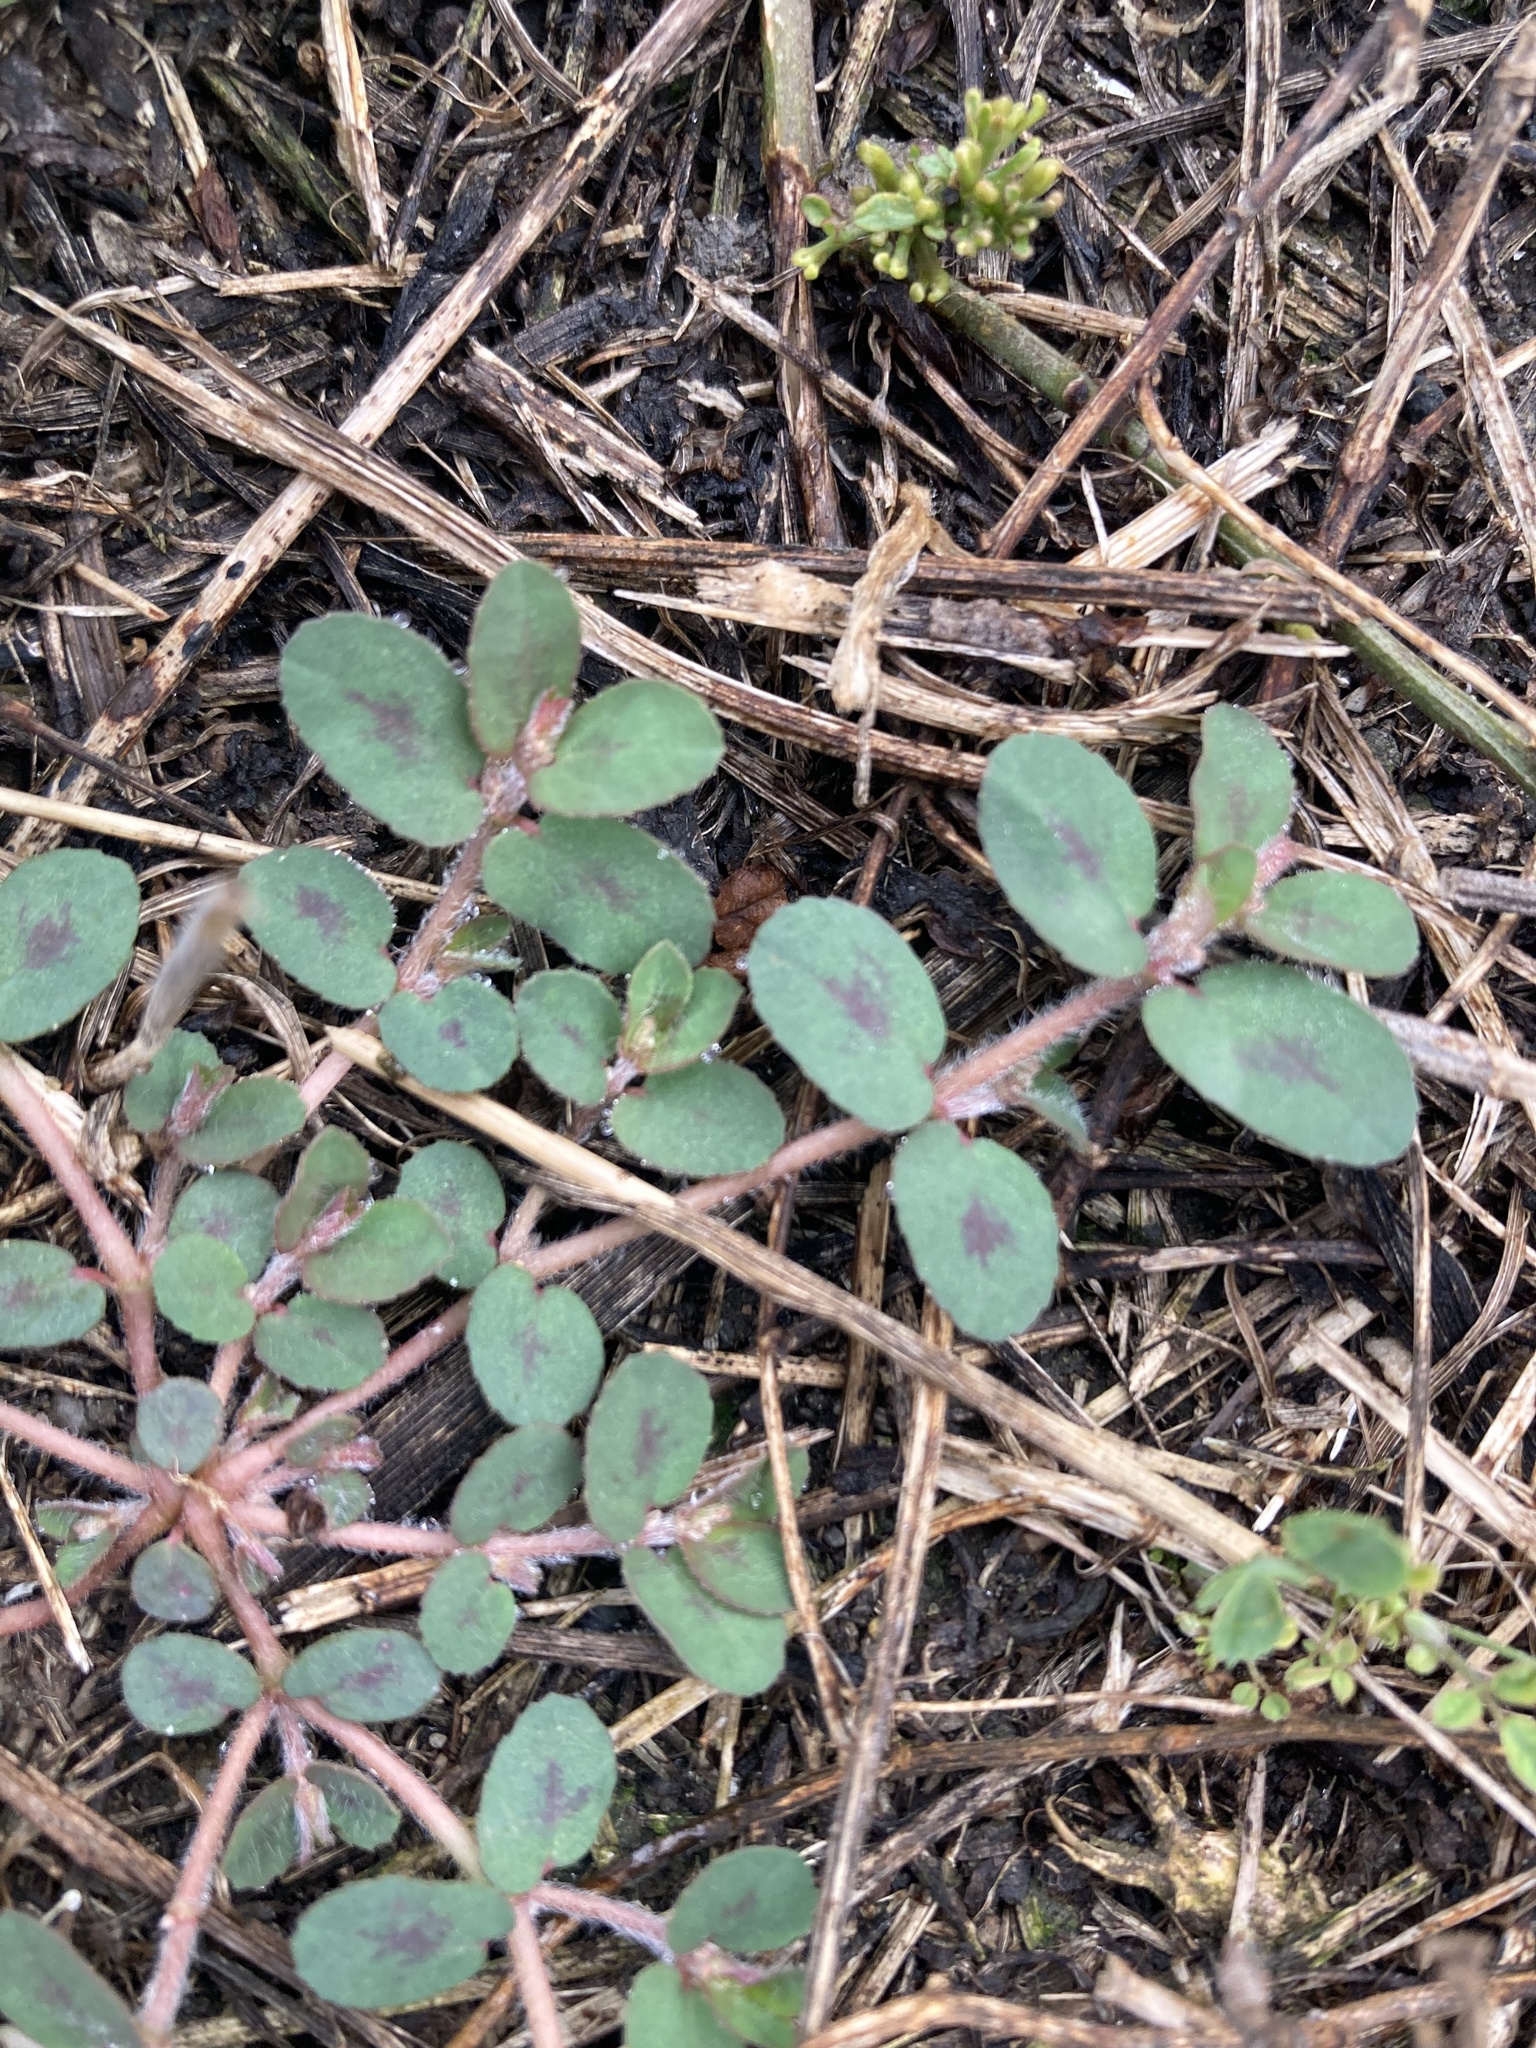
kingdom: Plantae
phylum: Tracheophyta
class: Magnoliopsida
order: Malpighiales
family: Euphorbiaceae
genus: Euphorbia
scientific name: Euphorbia maculata
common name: Spotted spurge
